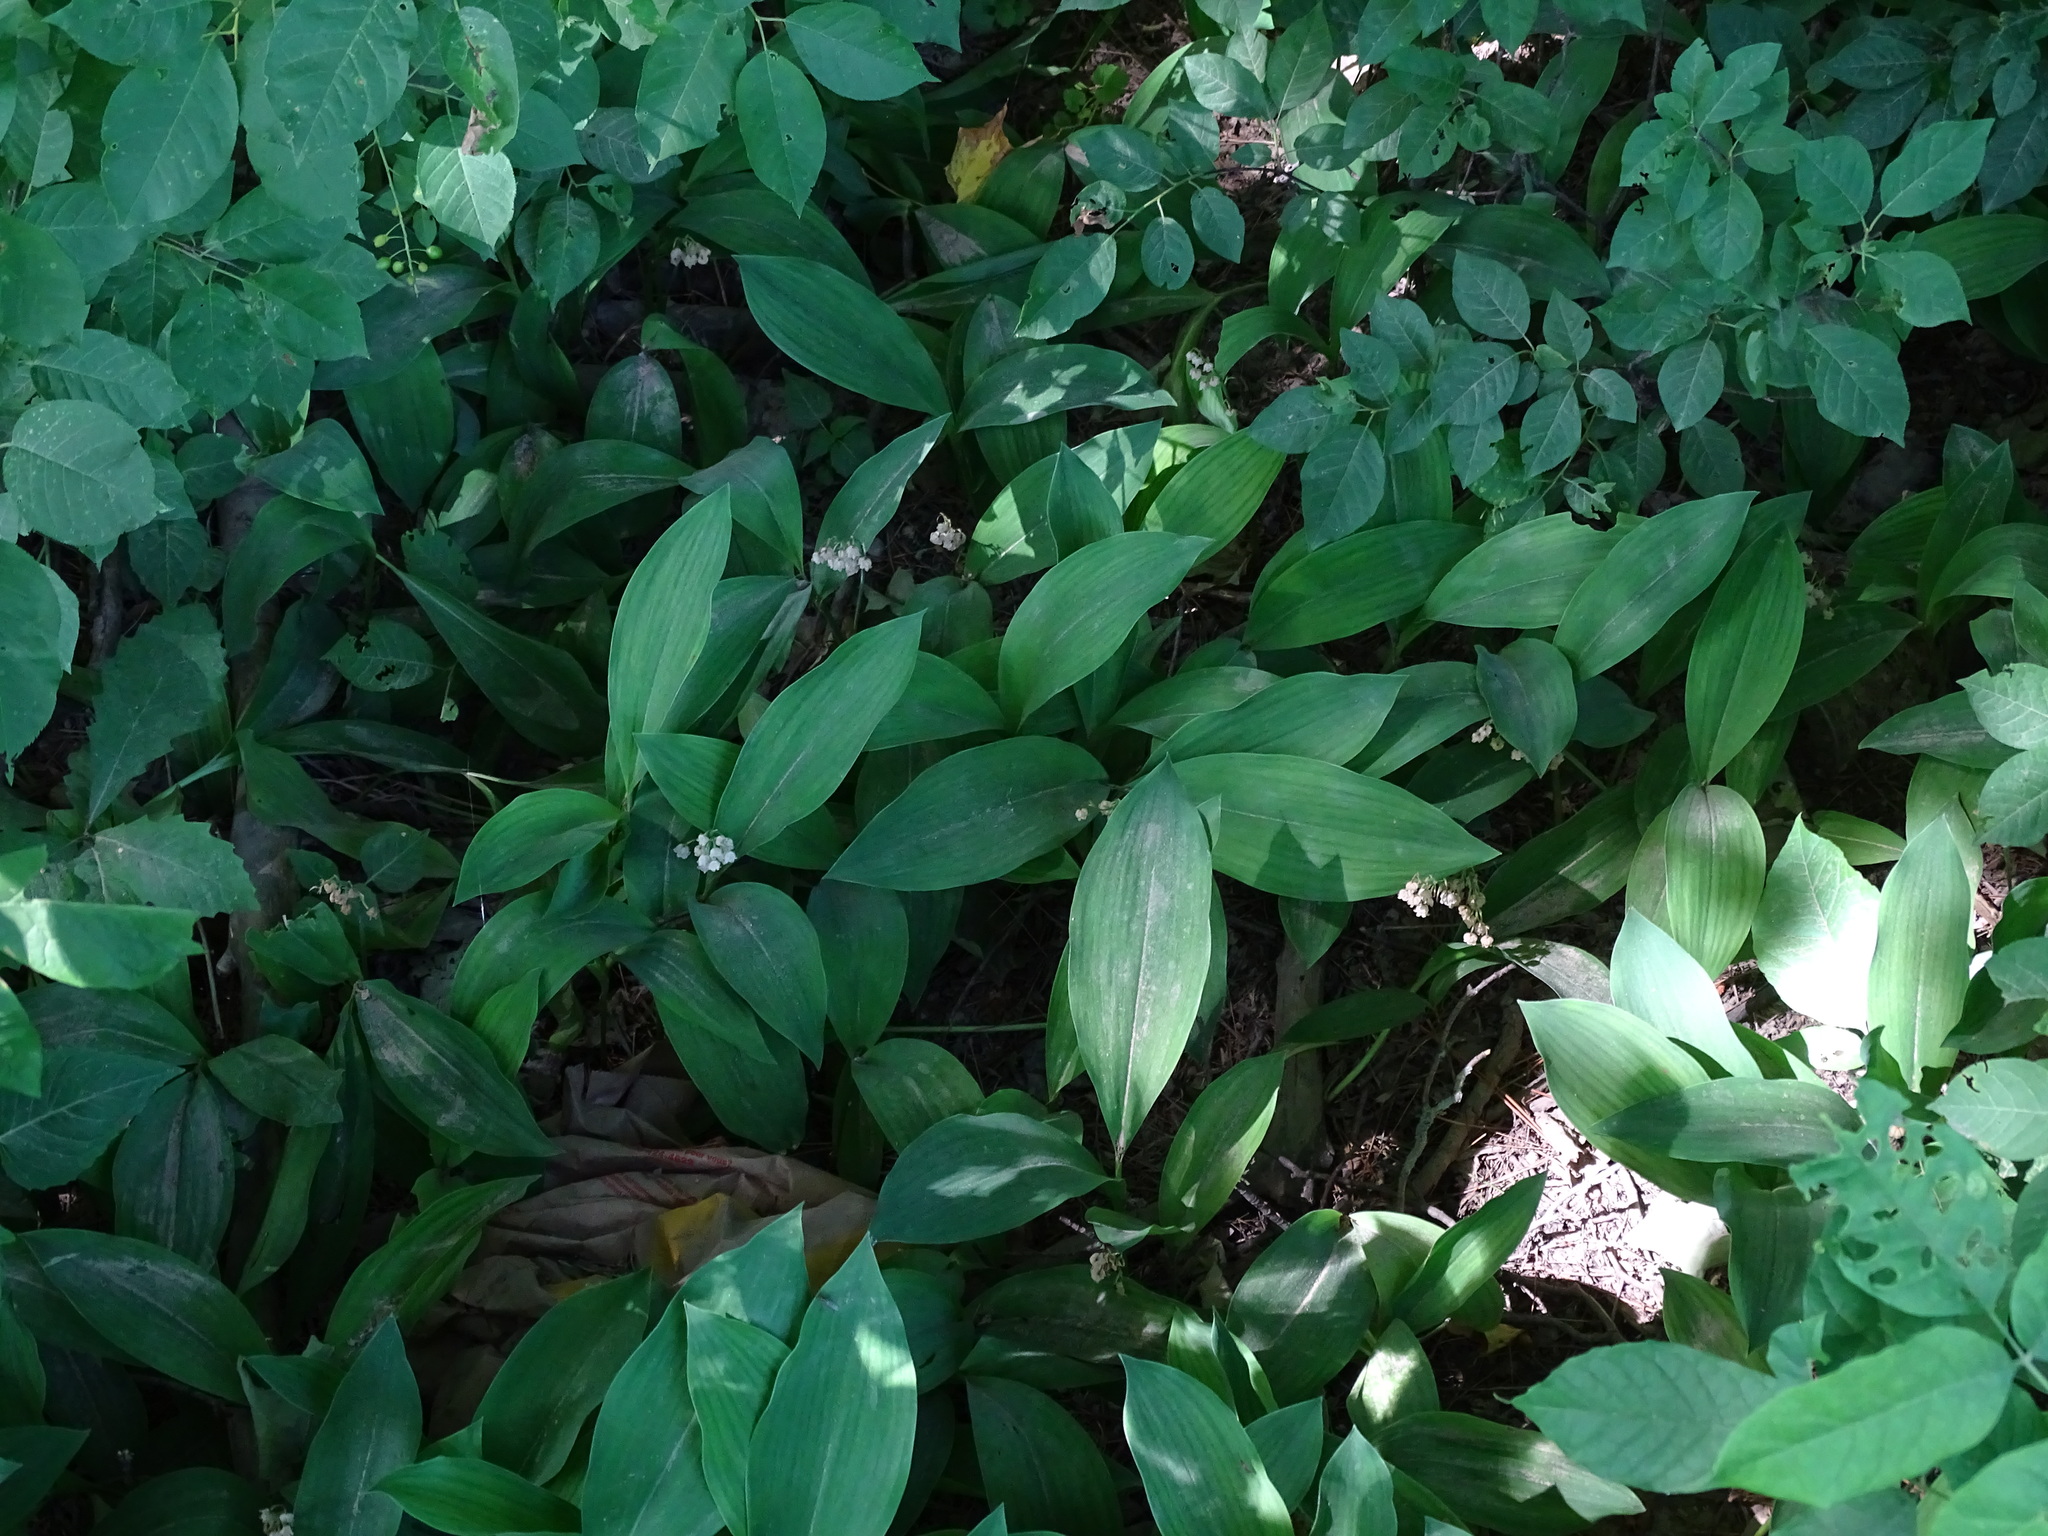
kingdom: Plantae
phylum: Tracheophyta
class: Liliopsida
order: Asparagales
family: Asparagaceae
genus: Convallaria
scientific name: Convallaria majalis
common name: Lily-of-the-valley
